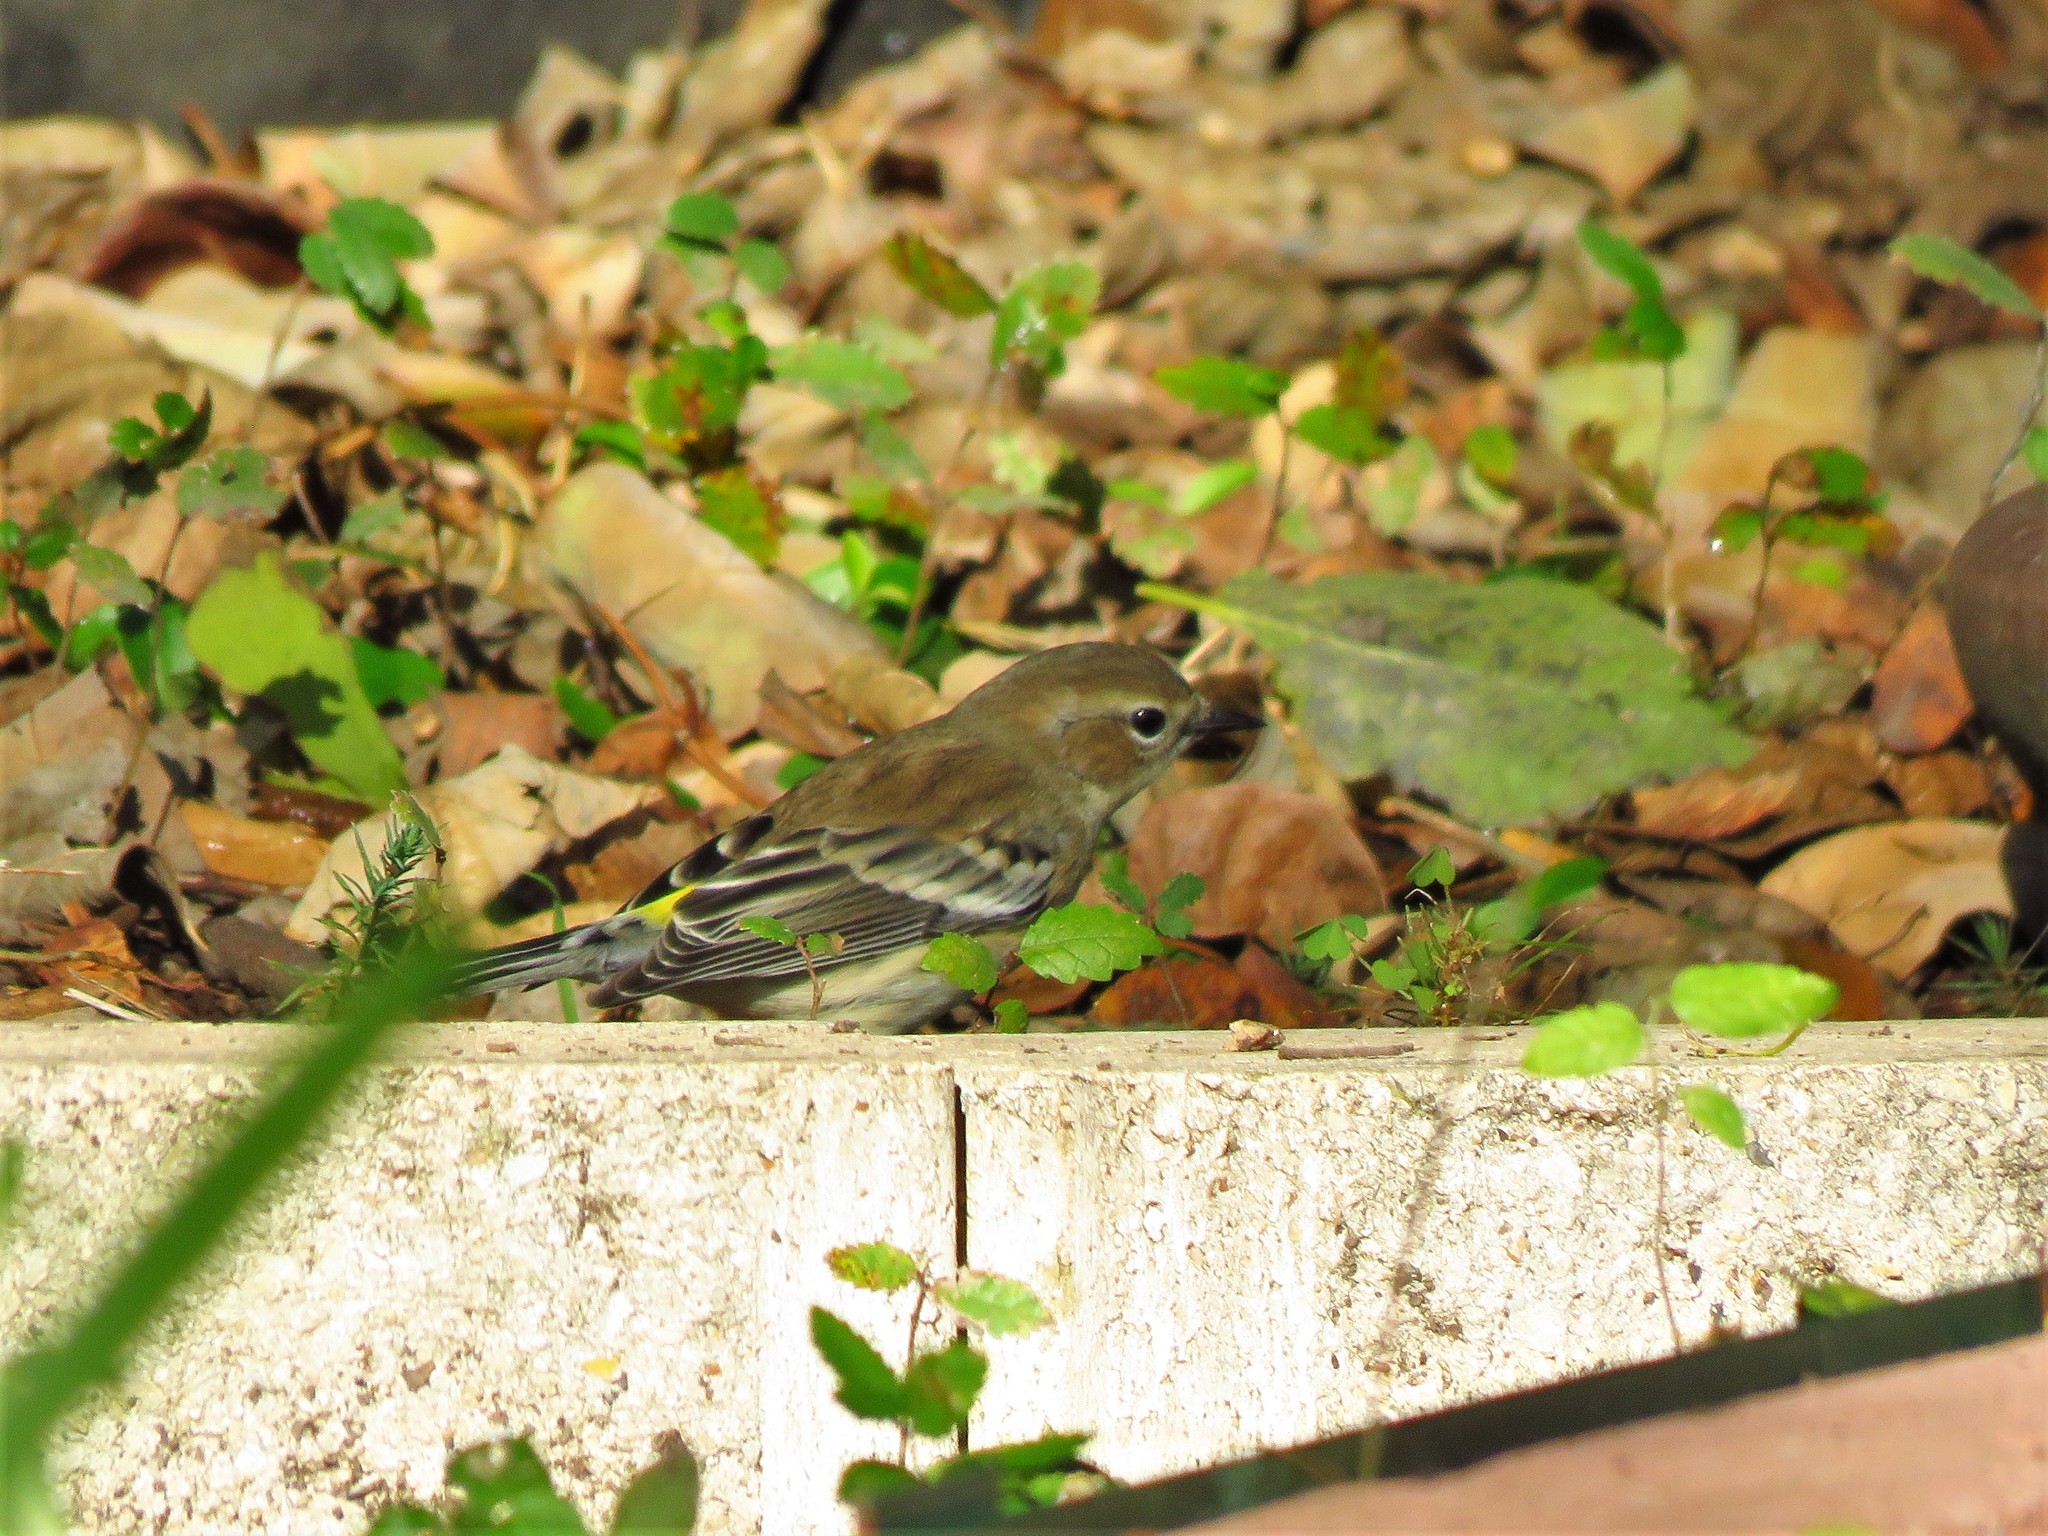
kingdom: Animalia
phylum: Chordata
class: Aves
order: Passeriformes
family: Parulidae
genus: Setophaga
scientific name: Setophaga coronata
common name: Myrtle warbler
